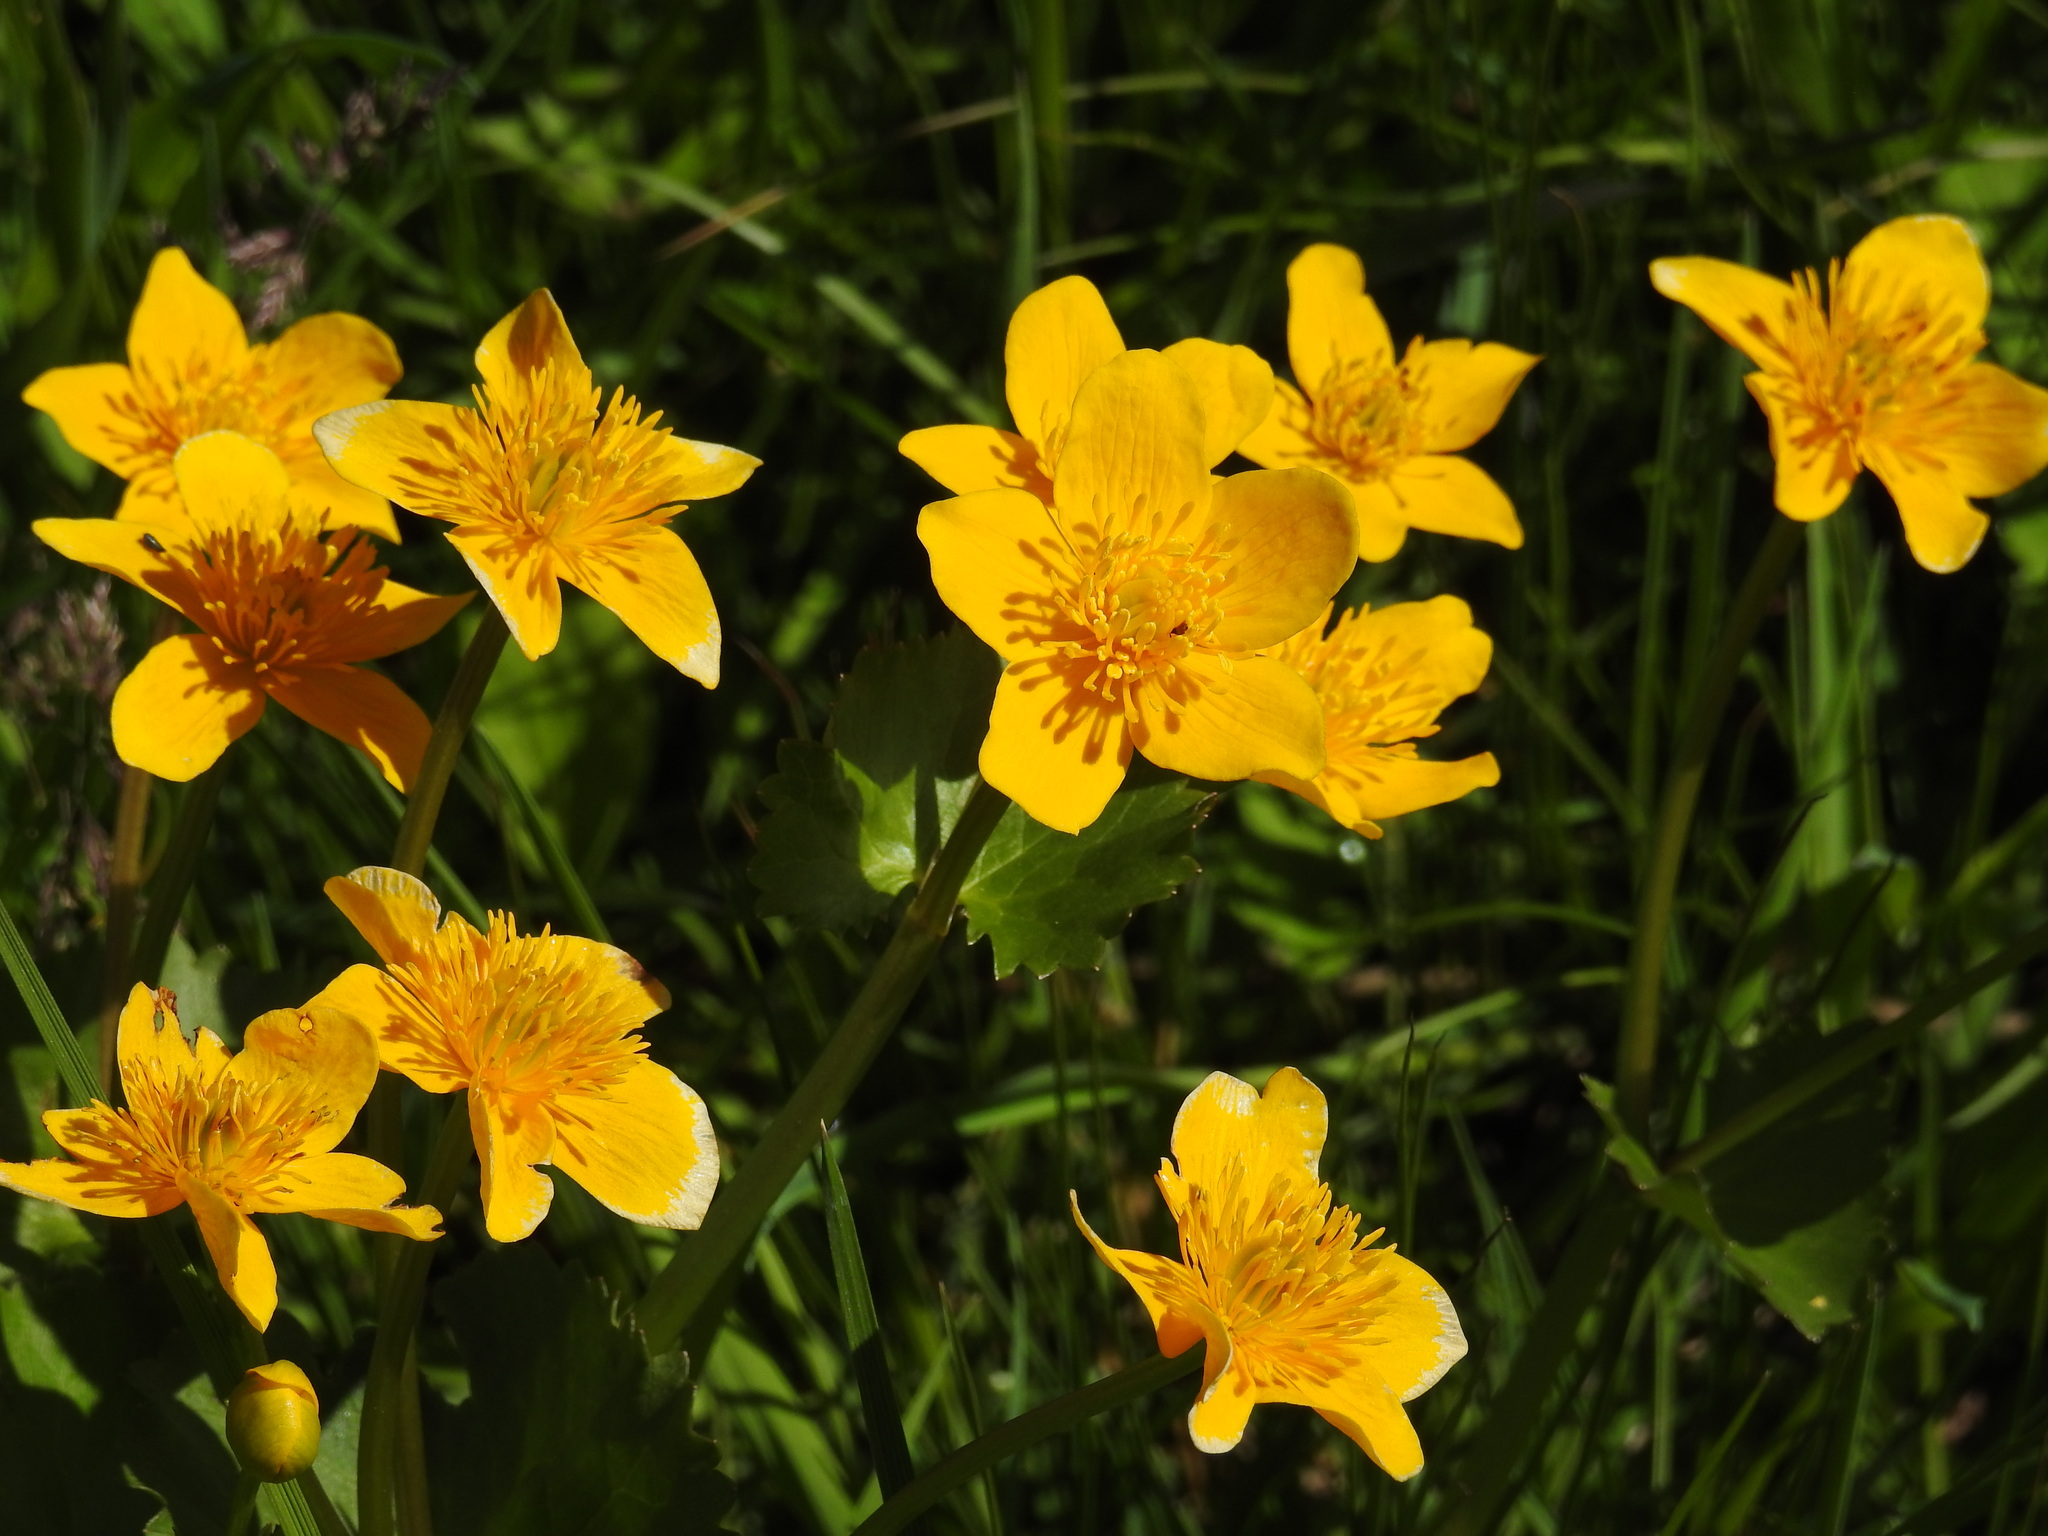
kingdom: Plantae
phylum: Tracheophyta
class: Magnoliopsida
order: Ranunculales
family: Ranunculaceae
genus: Caltha
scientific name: Caltha palustris
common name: Marsh marigold
